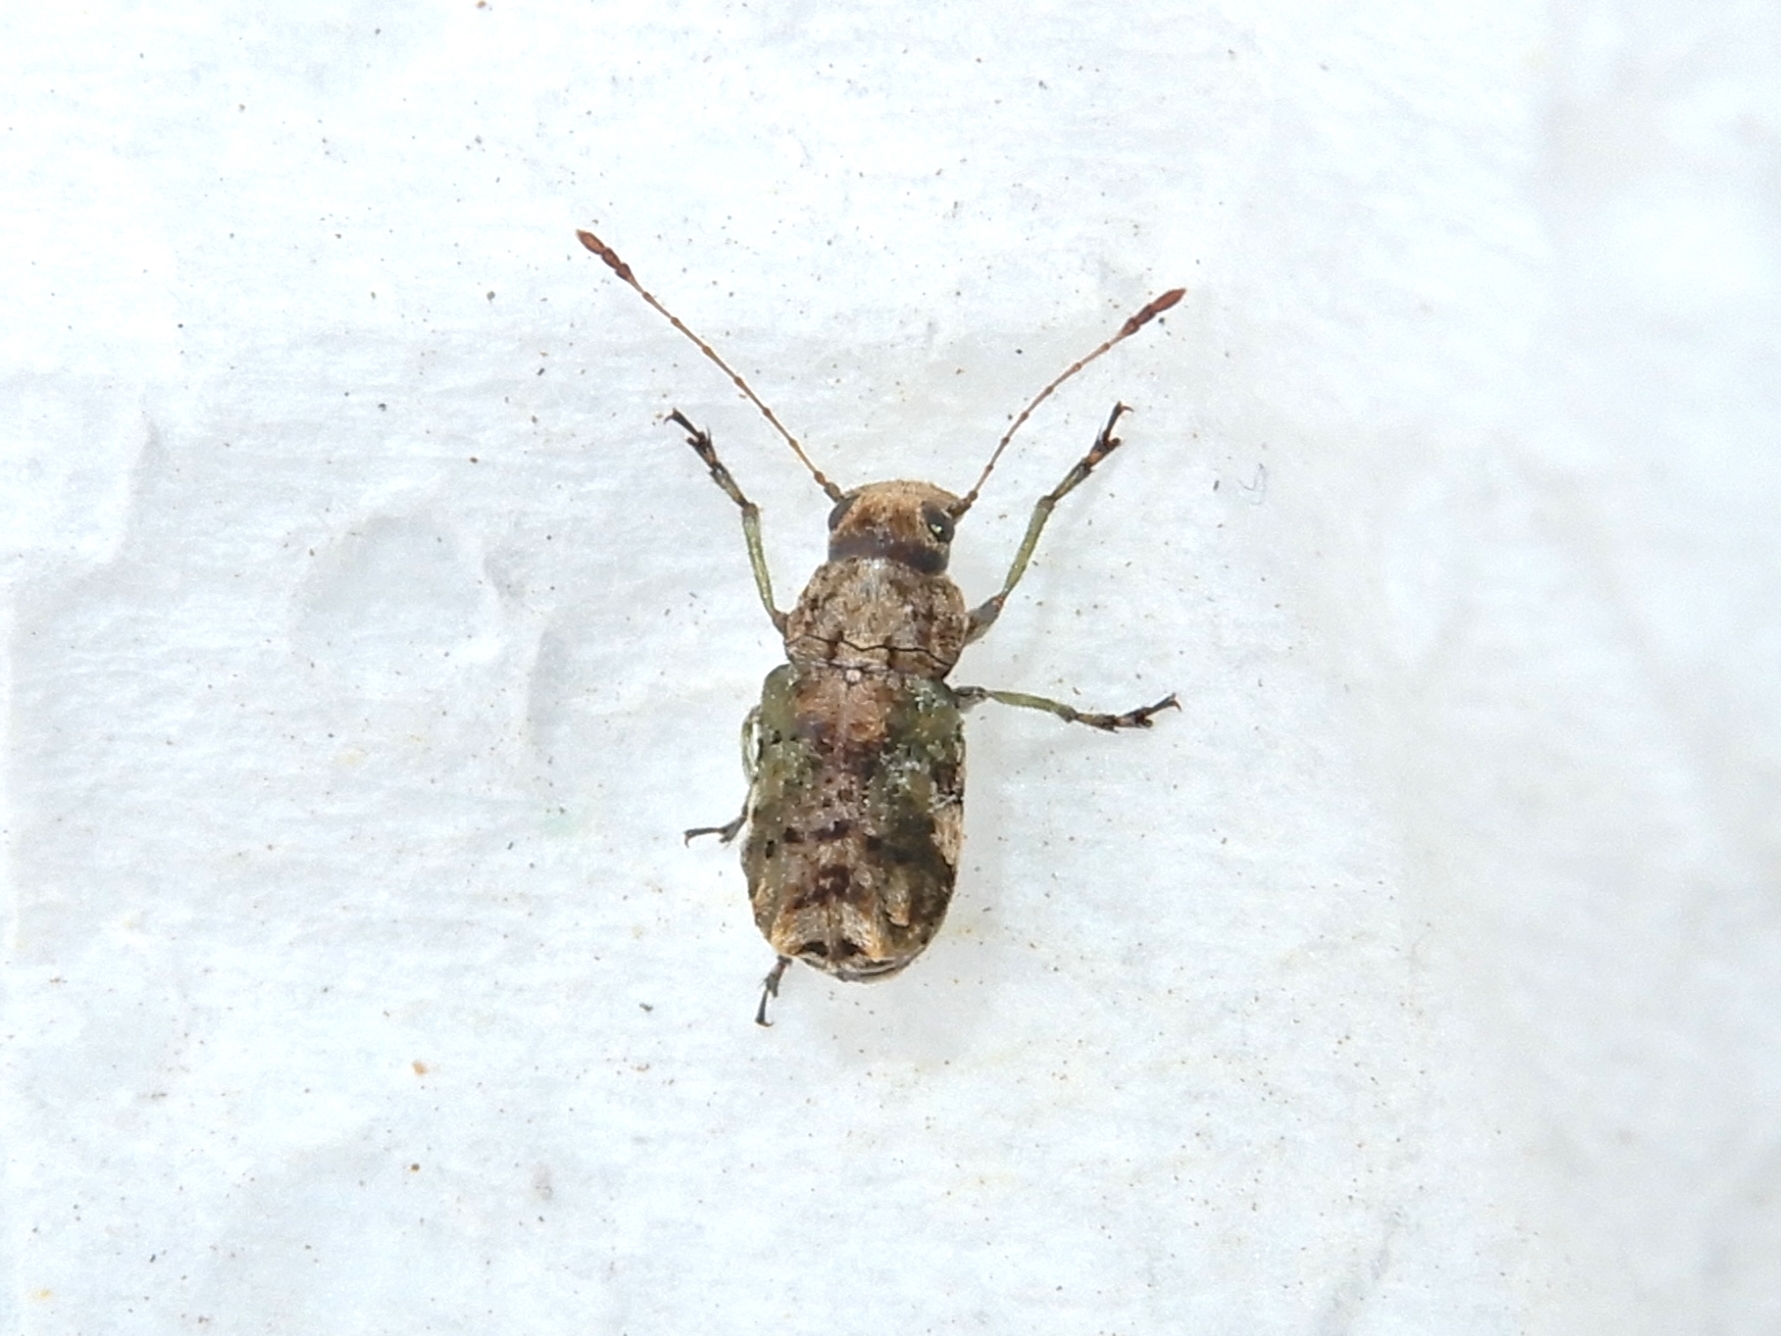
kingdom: Animalia
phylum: Arthropoda
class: Insecta
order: Coleoptera
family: Anthribidae
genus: Hoherius
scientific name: Hoherius
